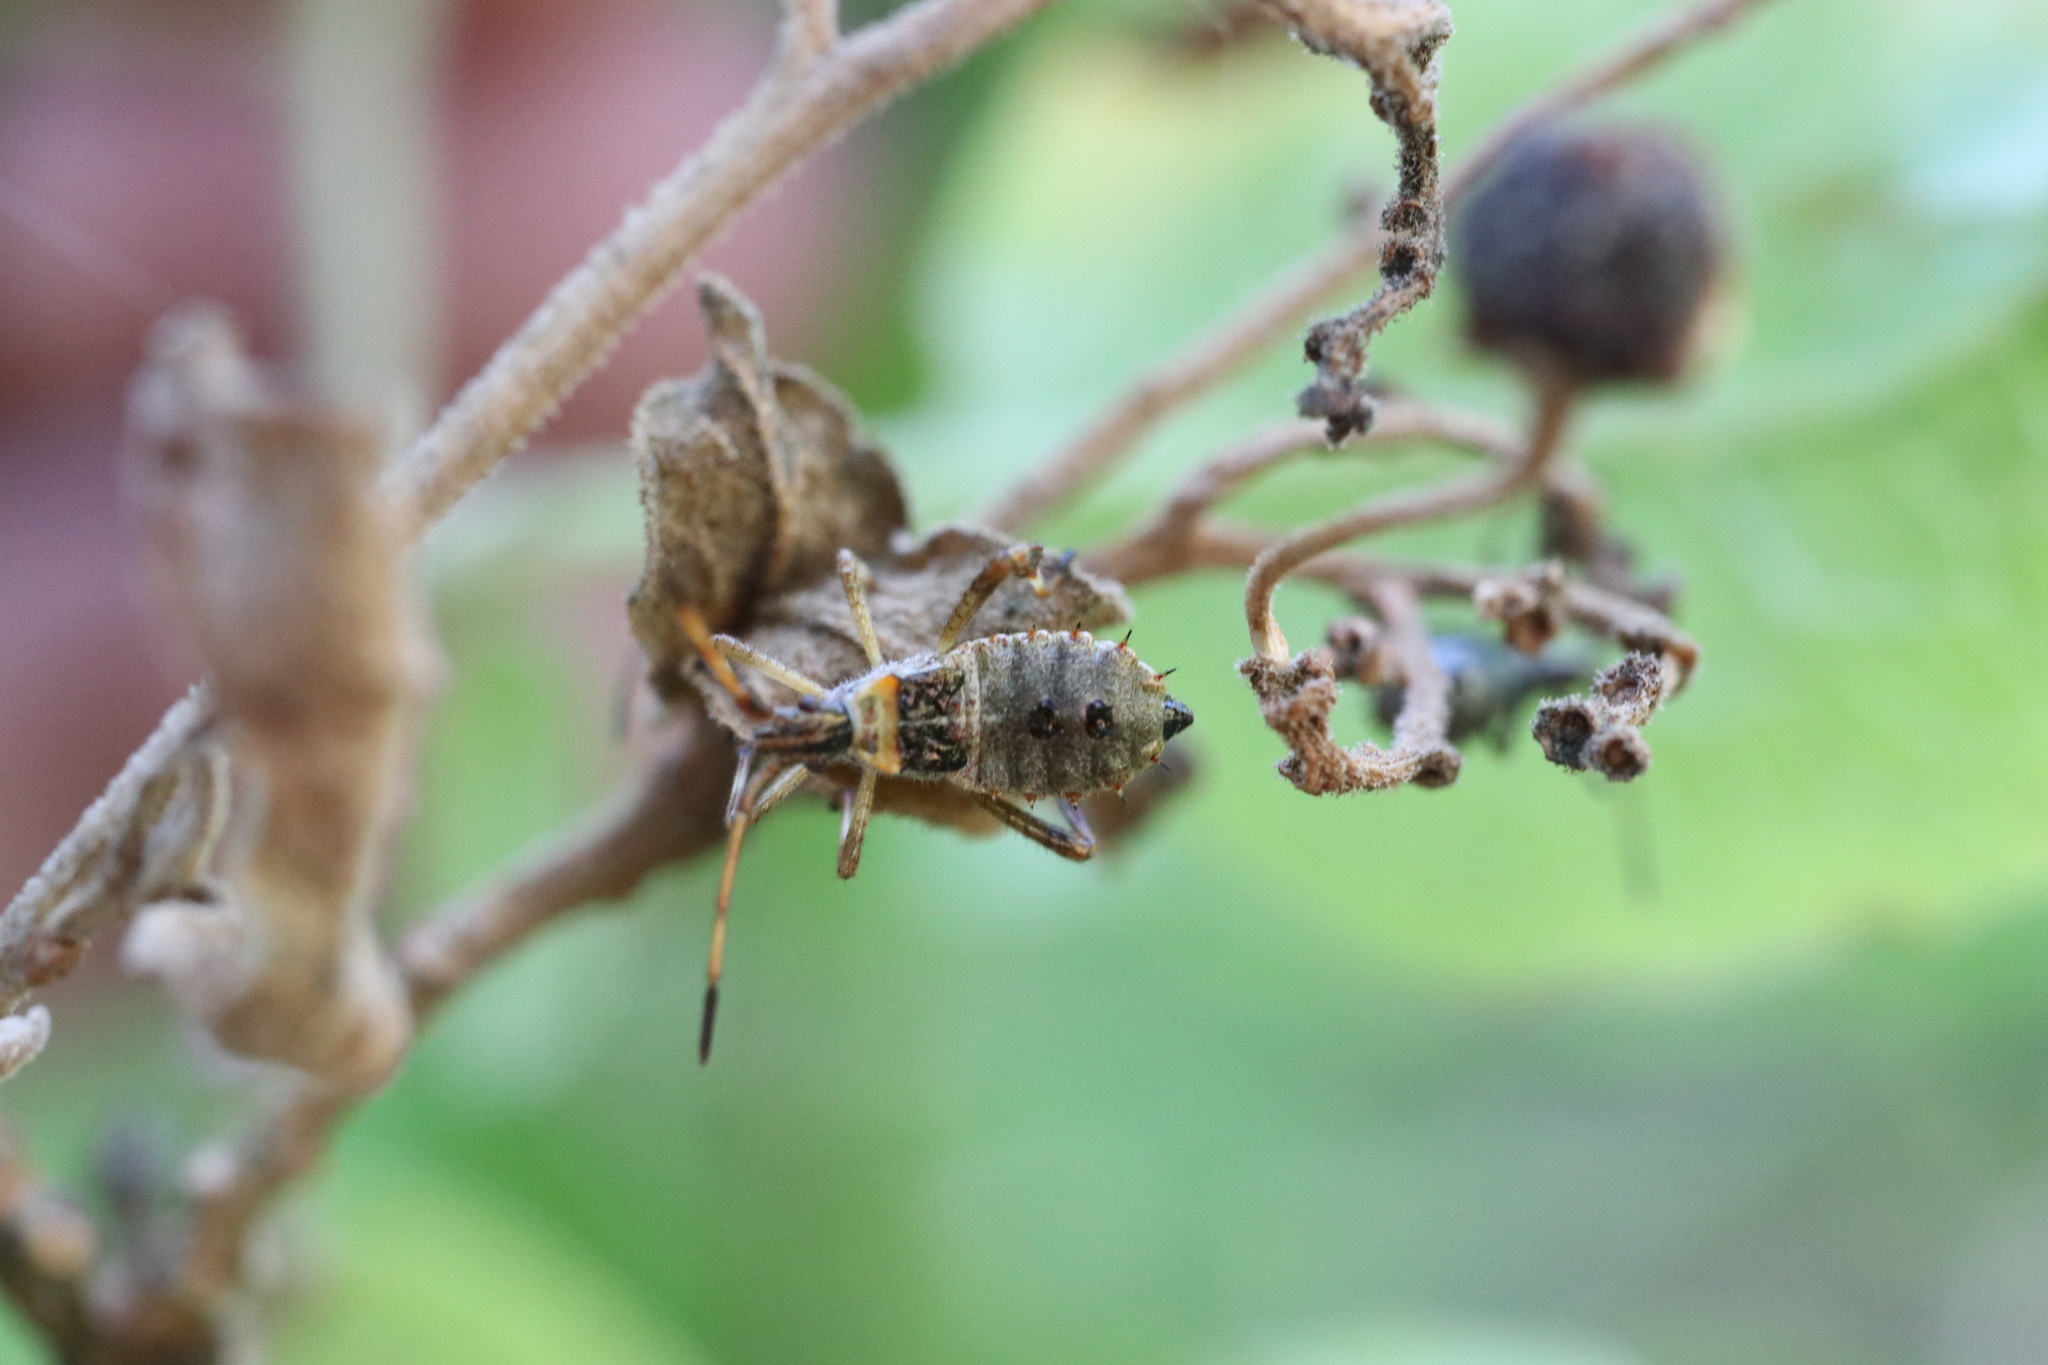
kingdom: Animalia
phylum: Arthropoda
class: Insecta
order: Hemiptera
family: Coreidae
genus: Leptoglossus
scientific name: Leptoglossus chilensis
